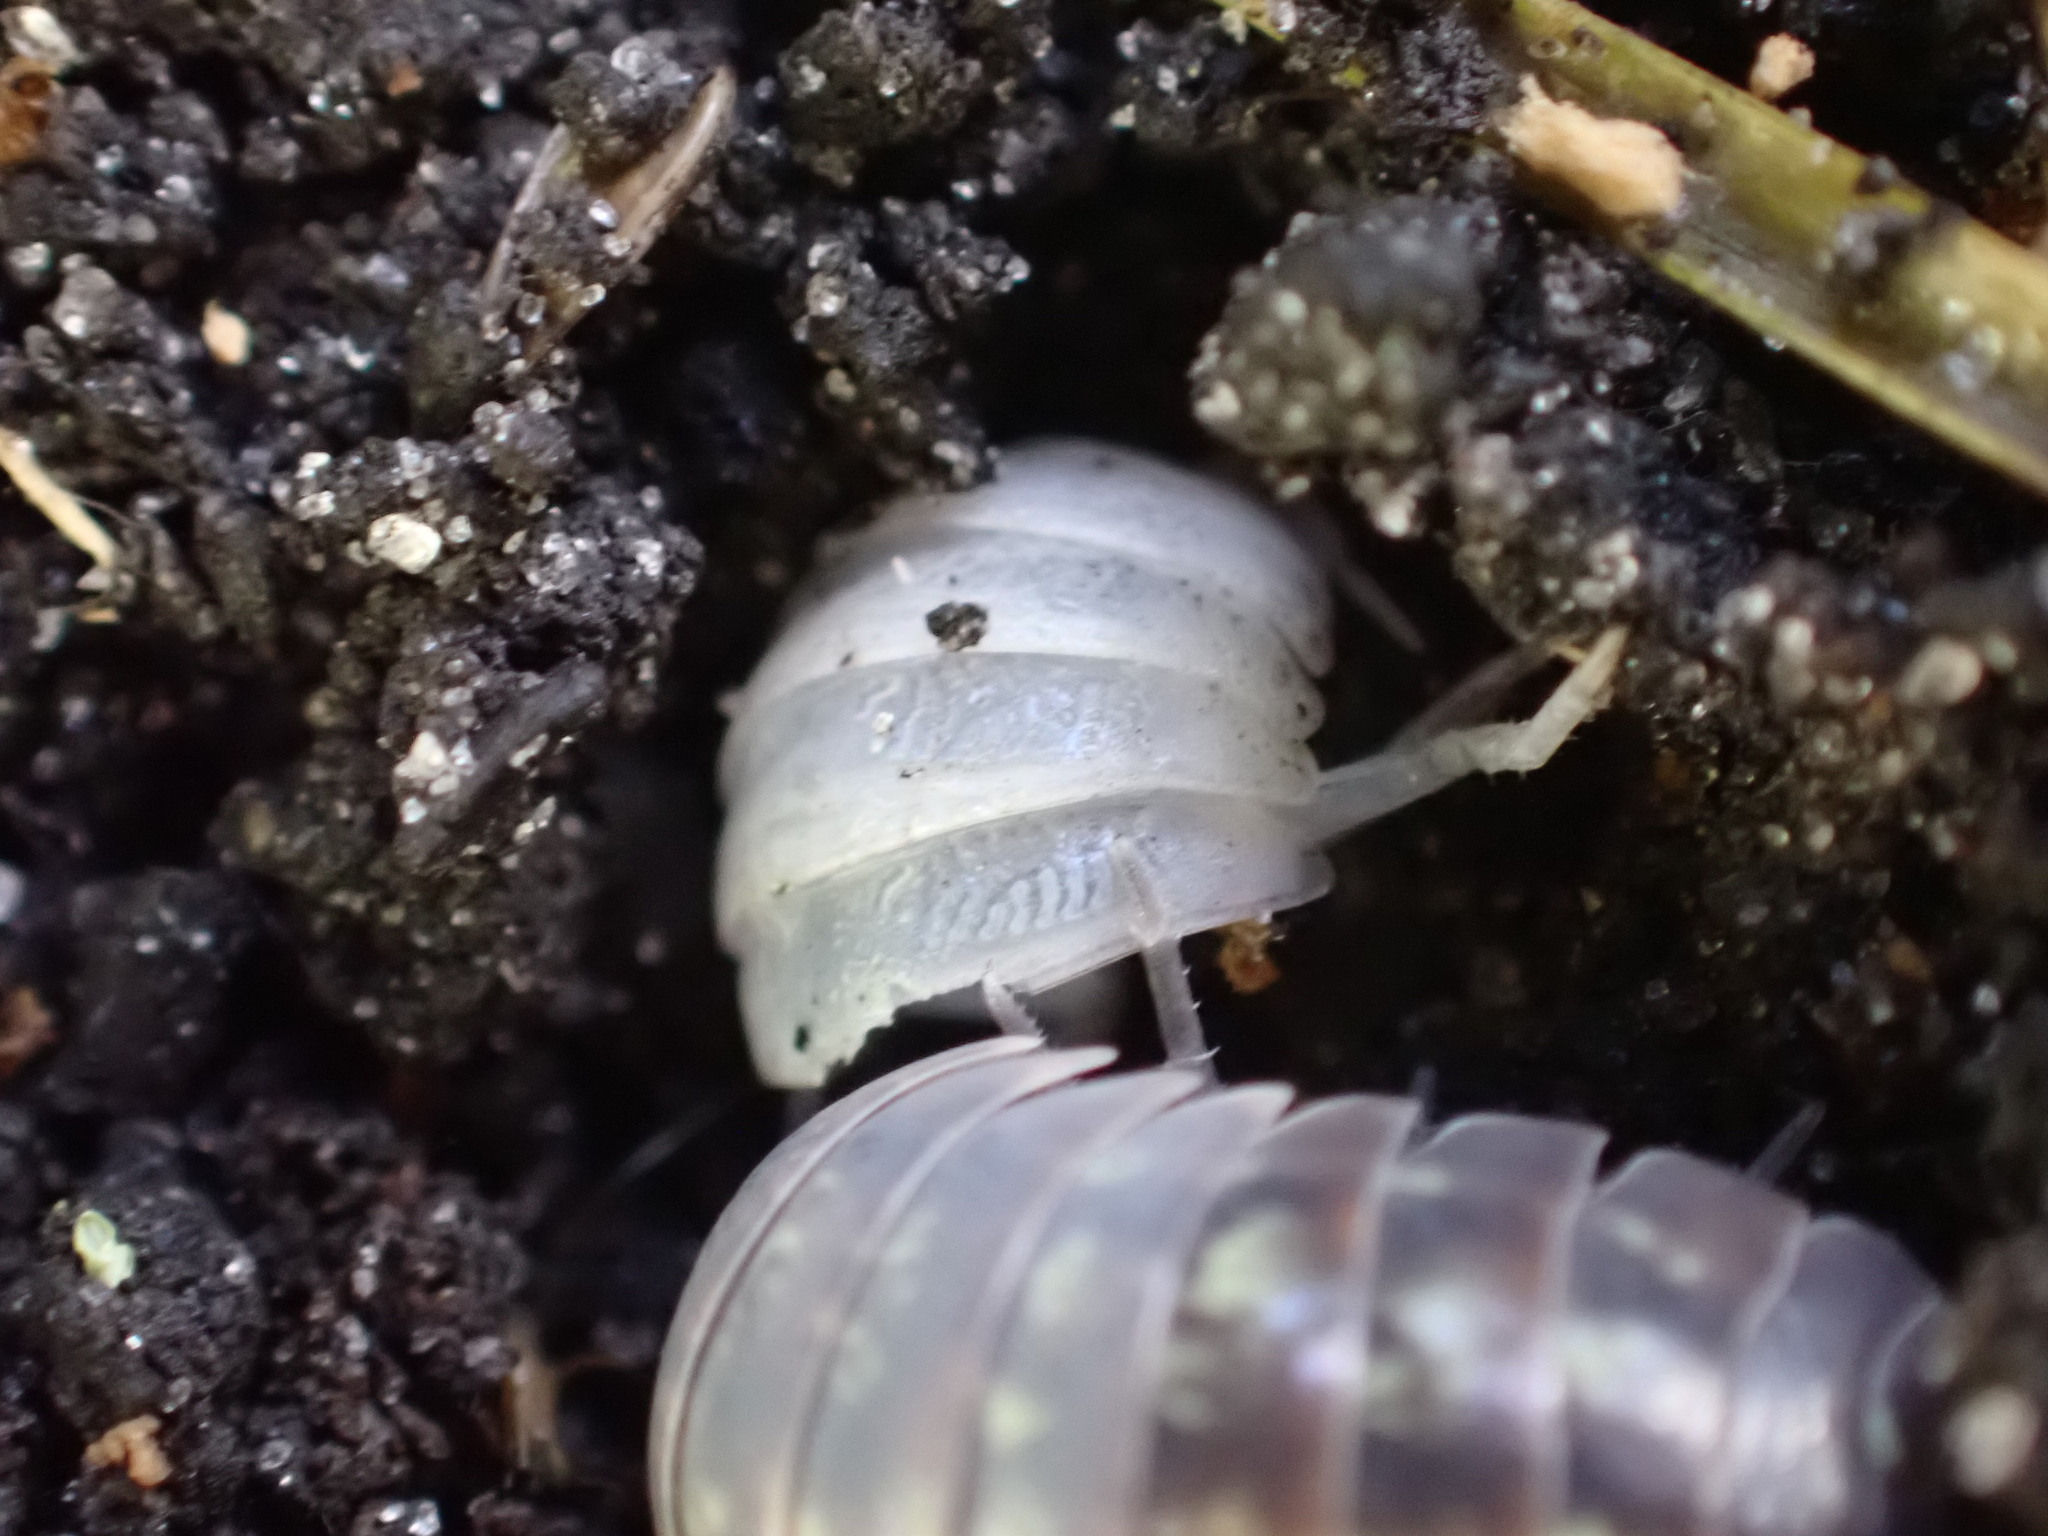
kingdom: Animalia
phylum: Arthropoda
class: Malacostraca
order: Isopoda
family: Armadillidiidae
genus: Armadillidium
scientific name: Armadillidium vulgare
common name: Common pill woodlouse
